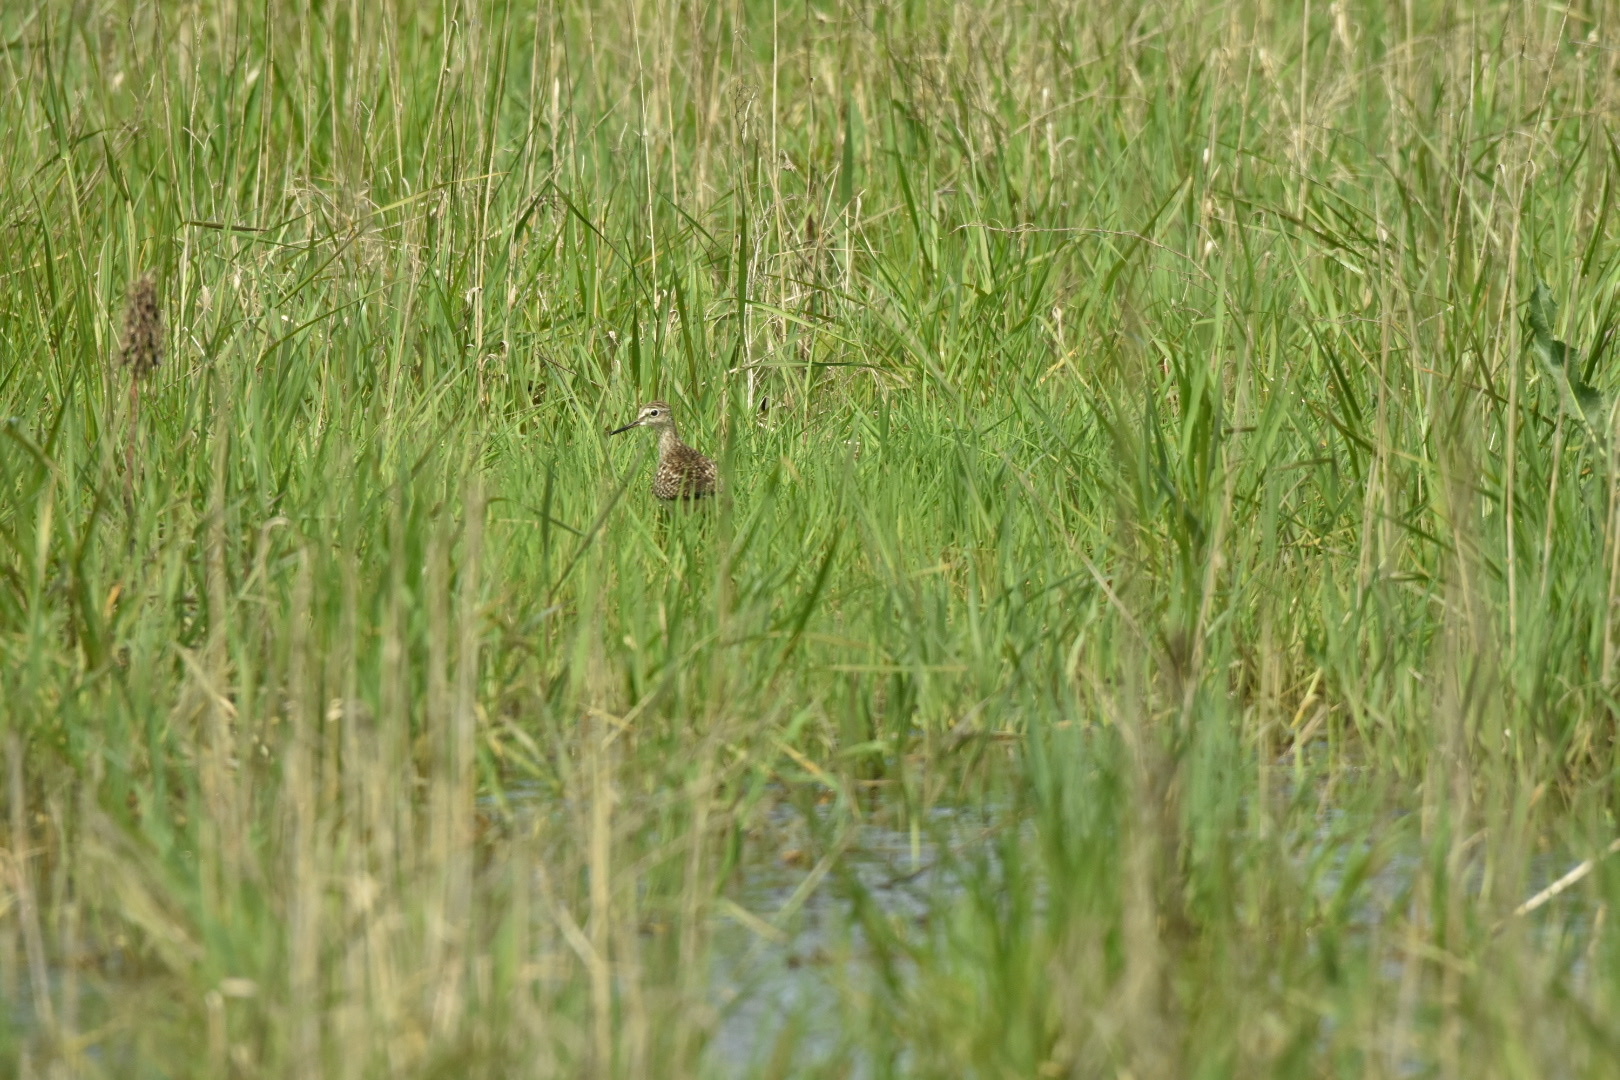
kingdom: Animalia
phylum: Chordata
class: Aves
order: Charadriiformes
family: Scolopacidae
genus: Tringa
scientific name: Tringa glareola
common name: Wood sandpiper
